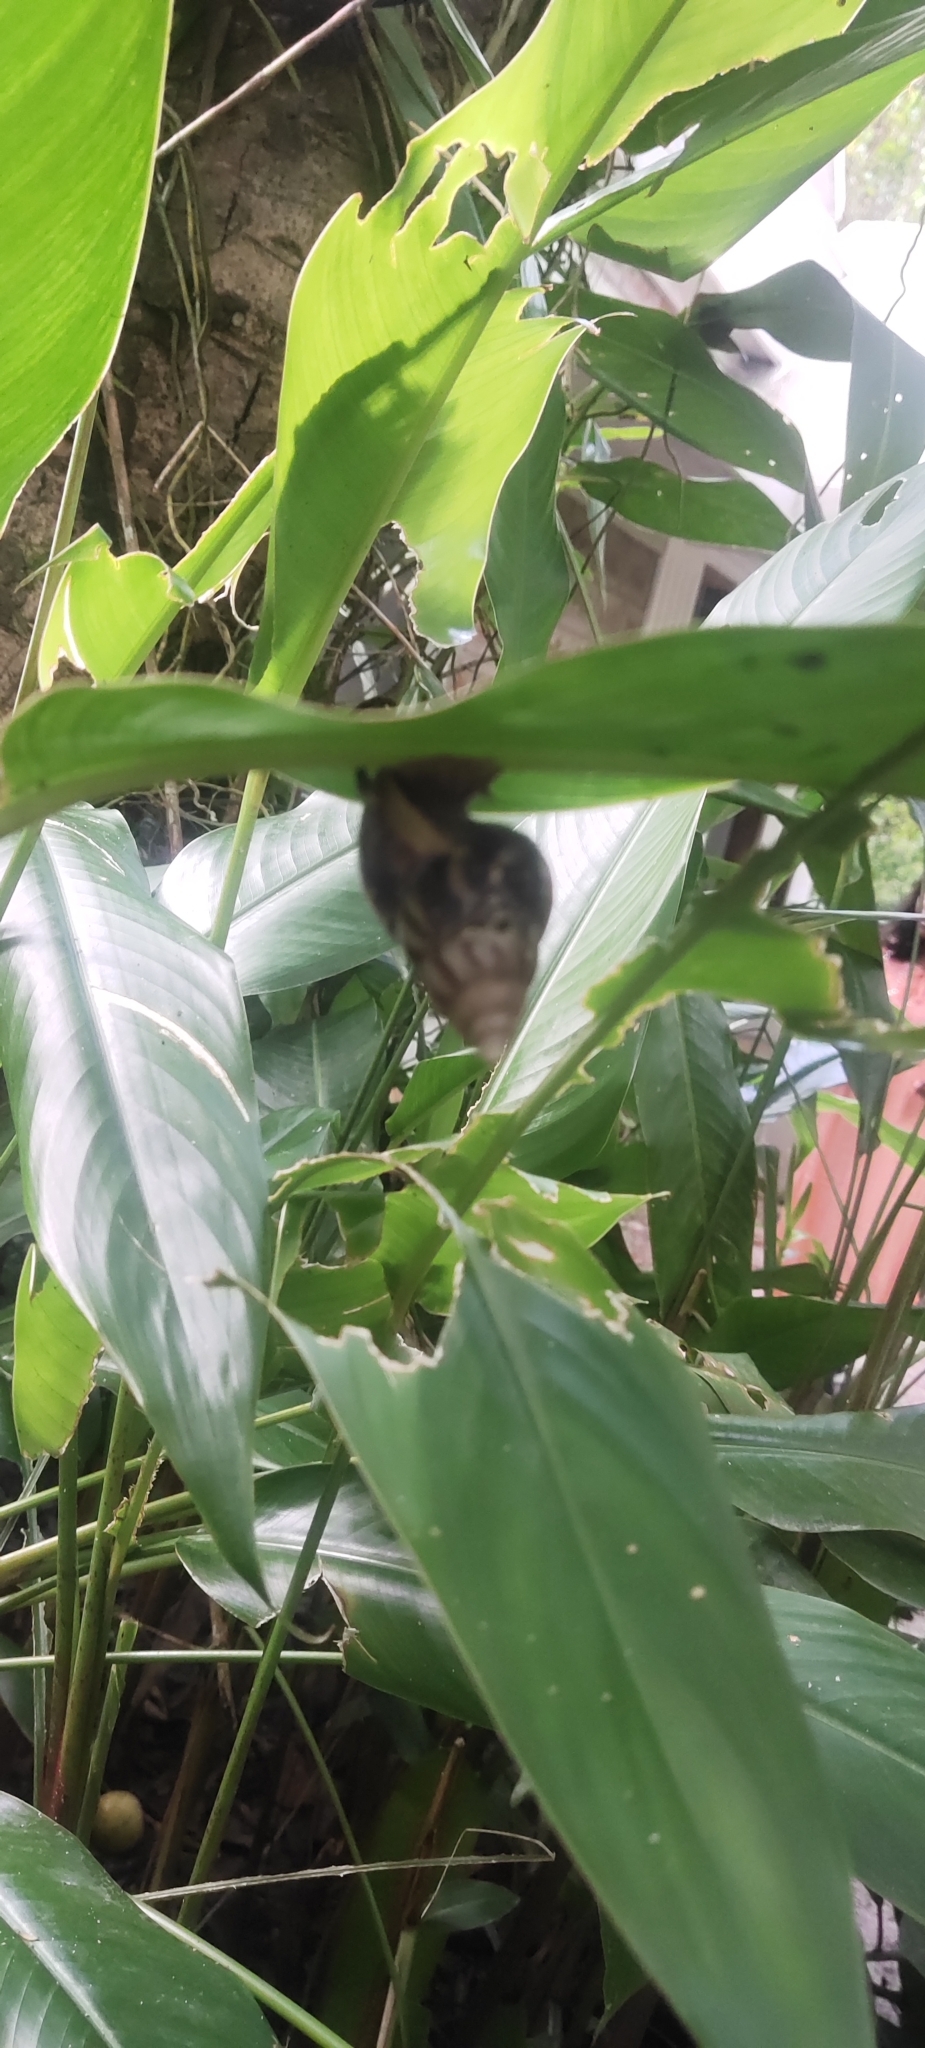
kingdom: Animalia
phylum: Mollusca
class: Gastropoda
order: Stylommatophora
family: Achatinidae
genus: Lissachatina
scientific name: Lissachatina fulica
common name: Giant african snail
